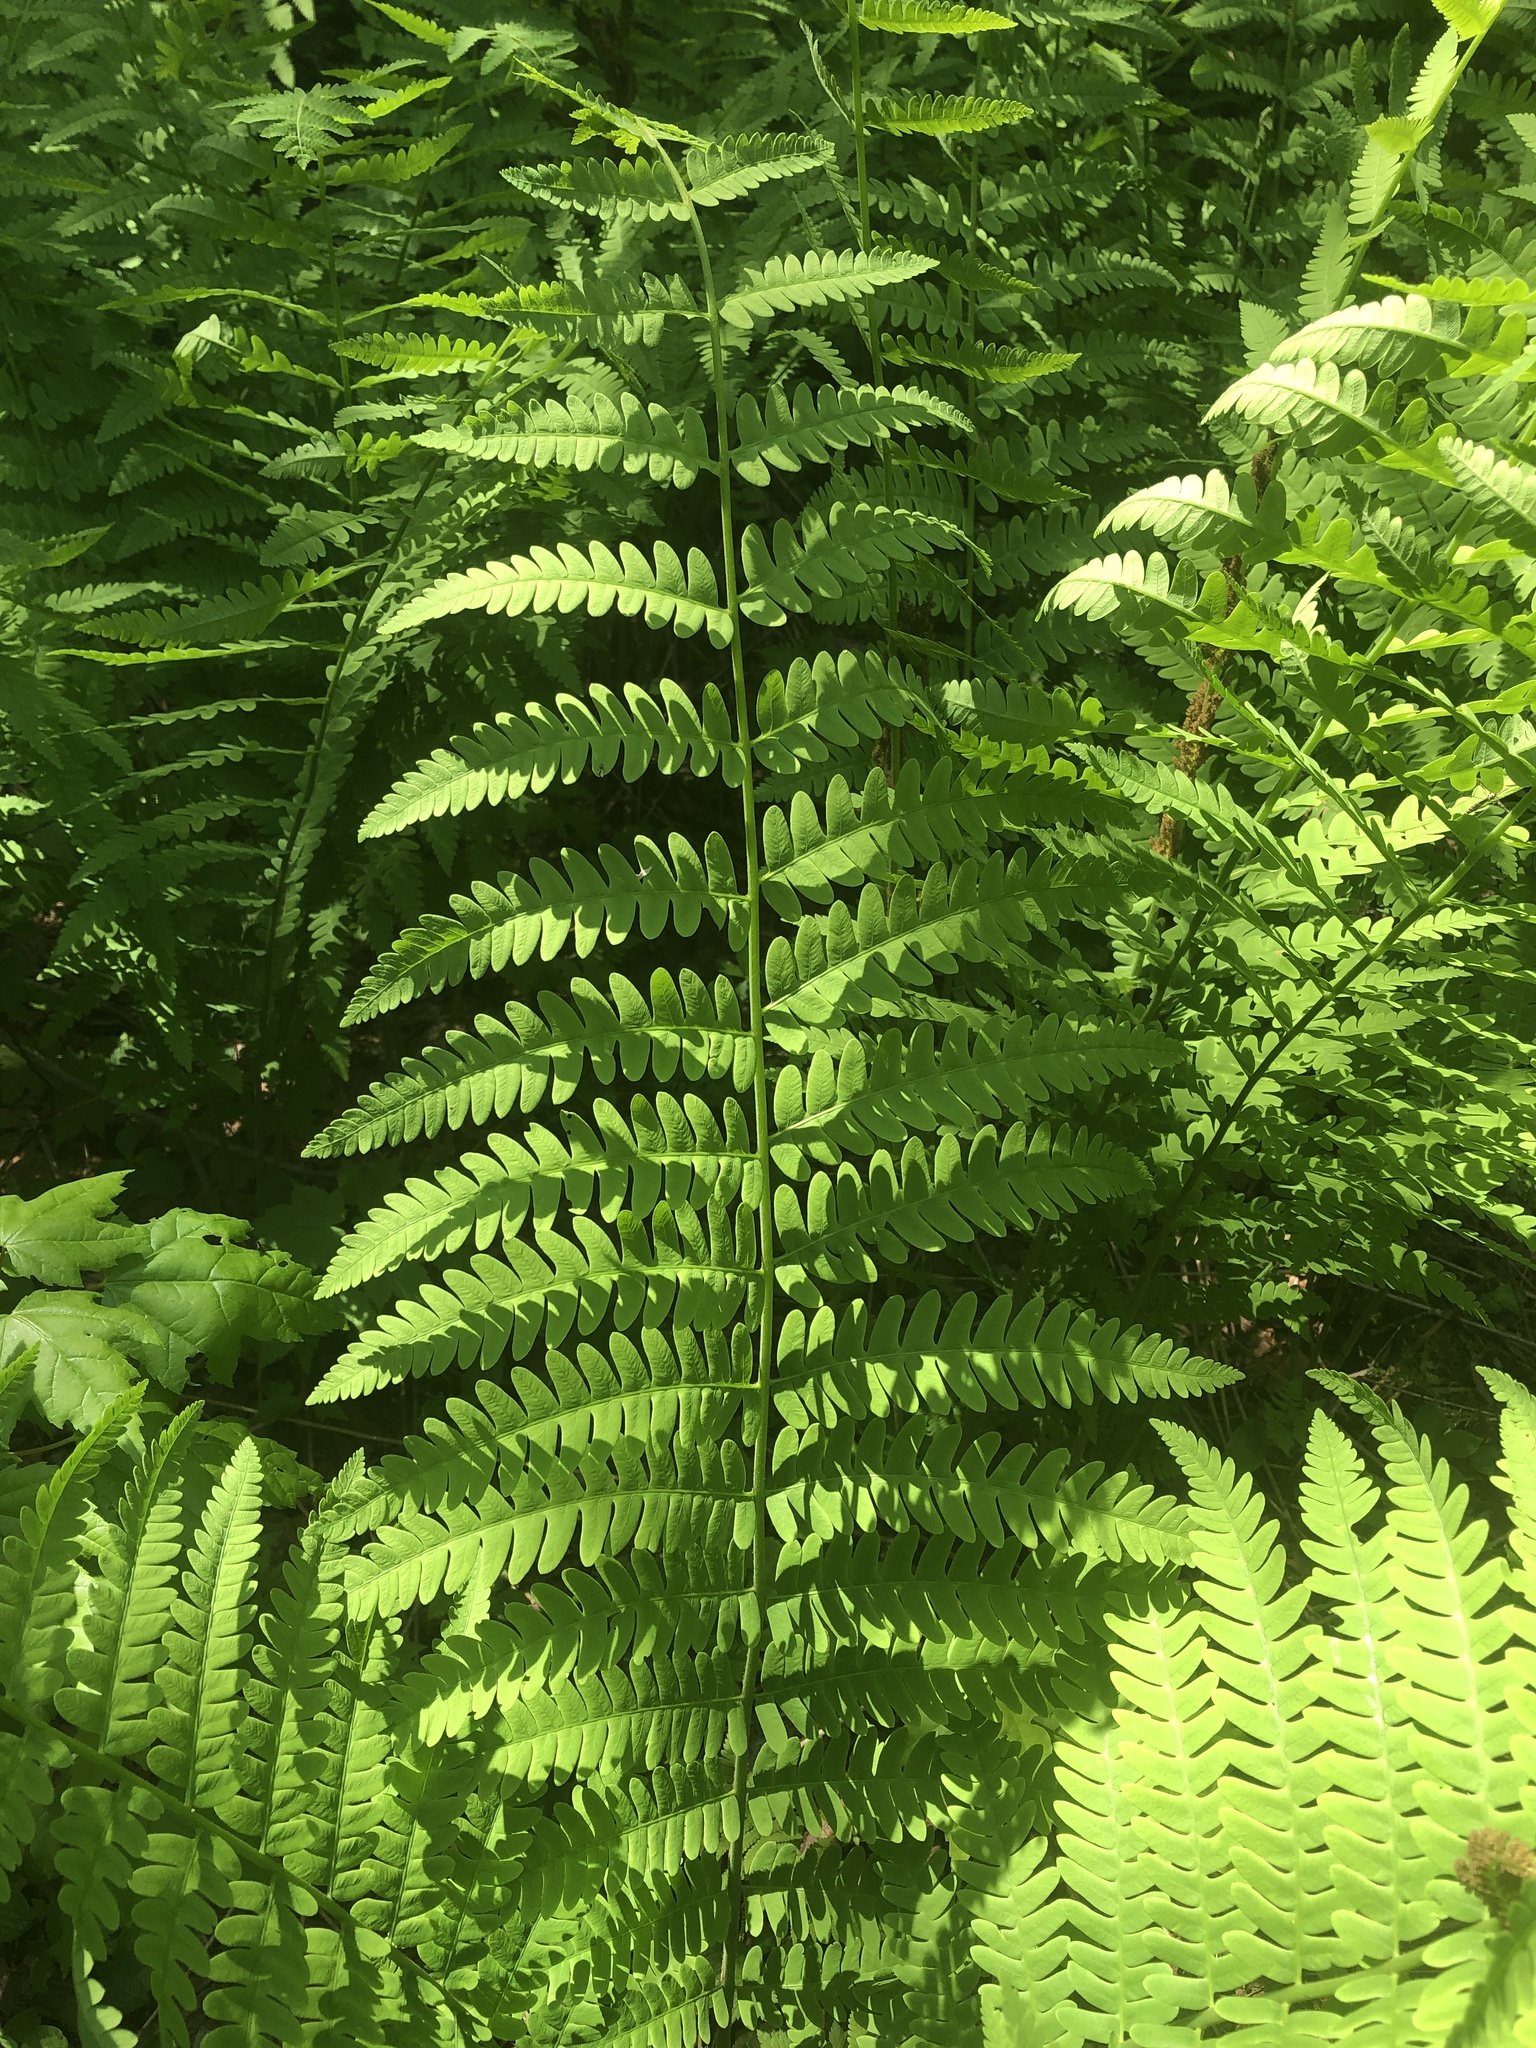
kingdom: Plantae
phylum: Tracheophyta
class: Polypodiopsida
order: Osmundales
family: Osmundaceae
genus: Claytosmunda
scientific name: Claytosmunda claytoniana
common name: Clayton's fern
